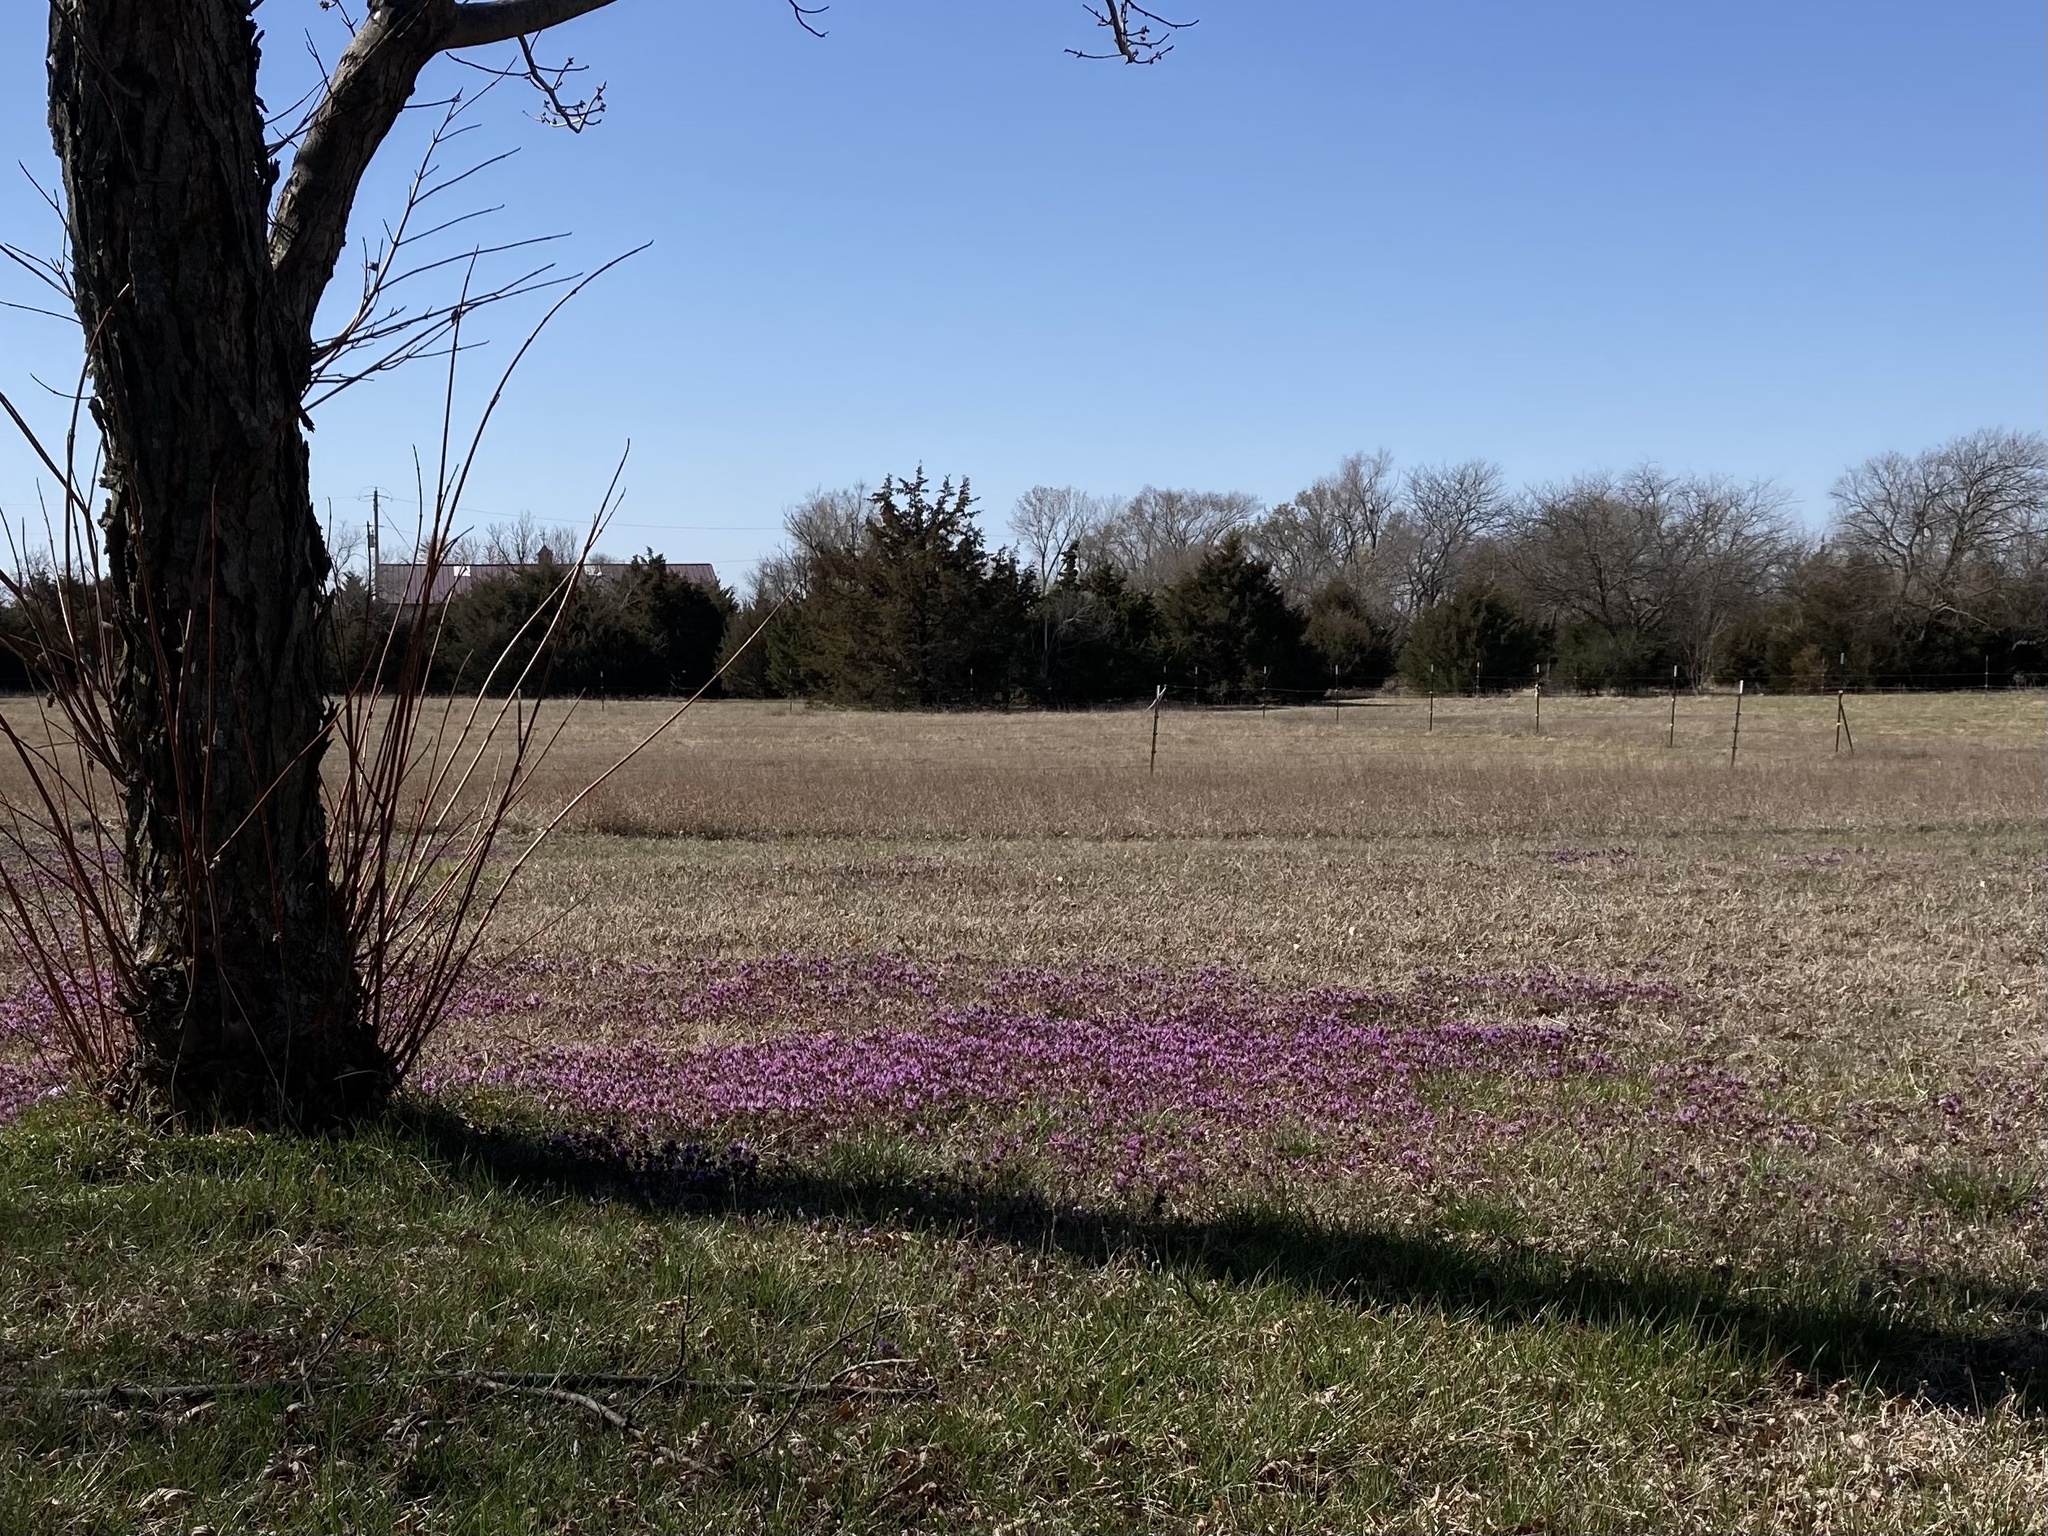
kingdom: Plantae
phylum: Tracheophyta
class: Magnoliopsida
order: Lamiales
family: Lamiaceae
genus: Lamium
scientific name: Lamium amplexicaule
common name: Henbit dead-nettle
